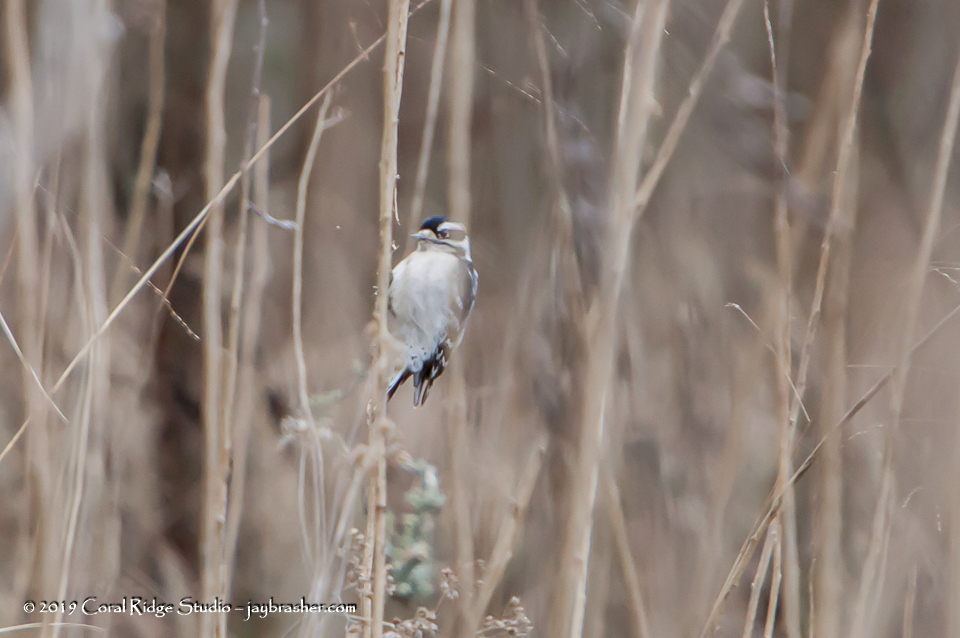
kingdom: Animalia
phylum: Chordata
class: Aves
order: Piciformes
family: Picidae
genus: Dryobates
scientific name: Dryobates pubescens
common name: Downy woodpecker
